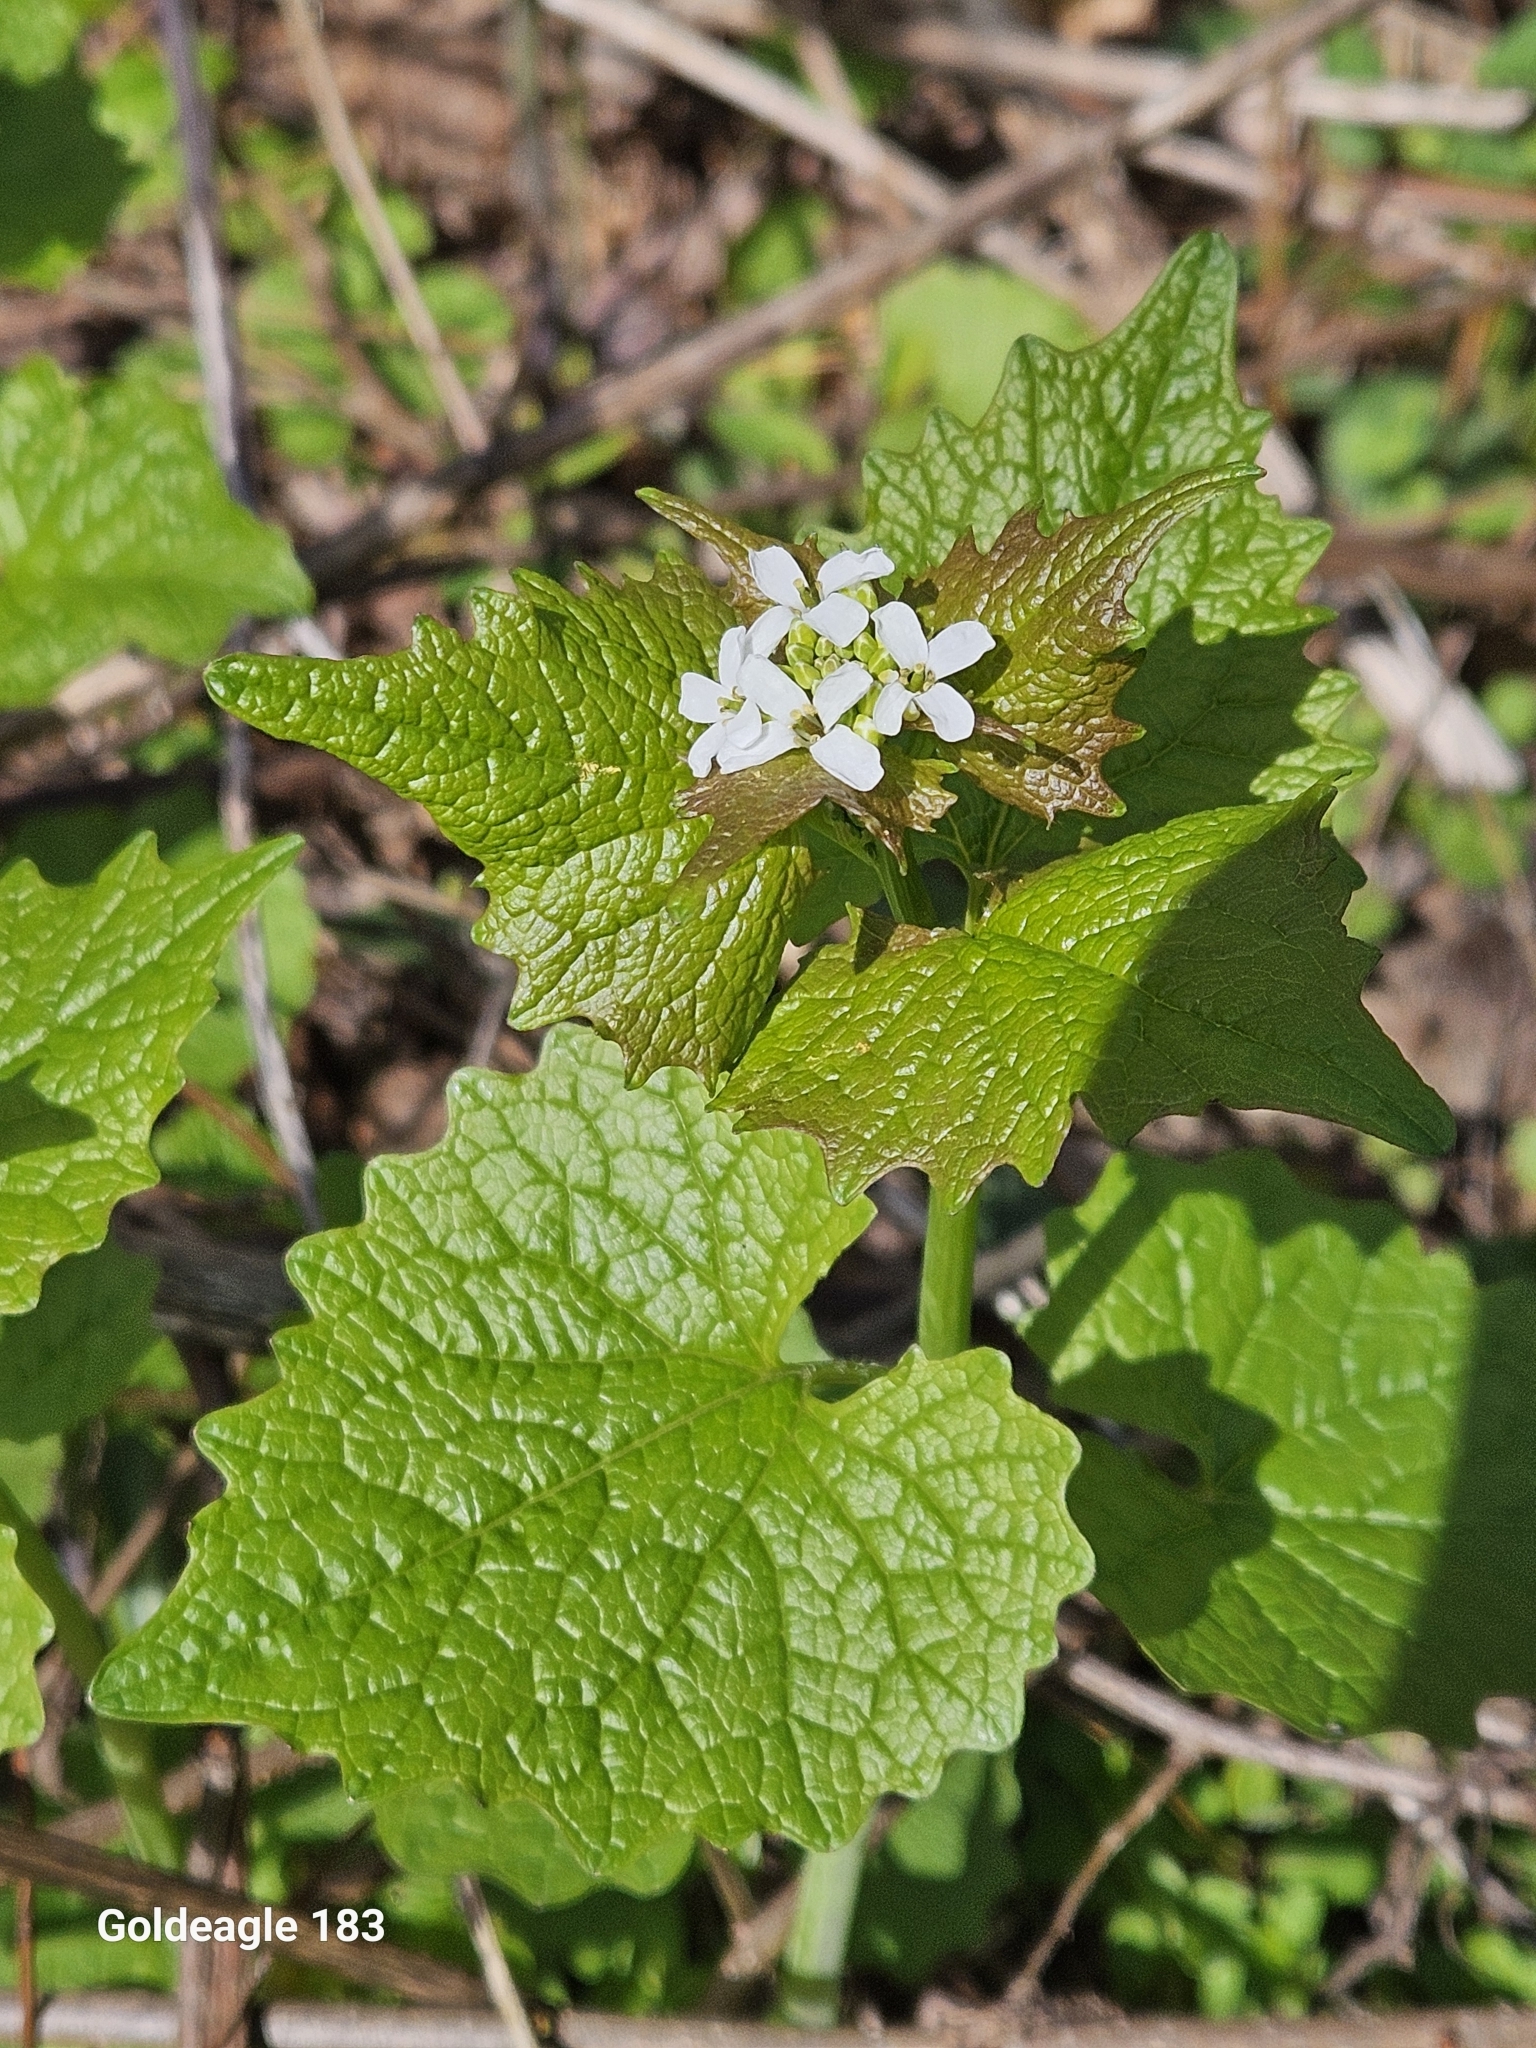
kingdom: Plantae
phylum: Tracheophyta
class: Magnoliopsida
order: Brassicales
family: Brassicaceae
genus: Alliaria
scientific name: Alliaria petiolata
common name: Garlic mustard
